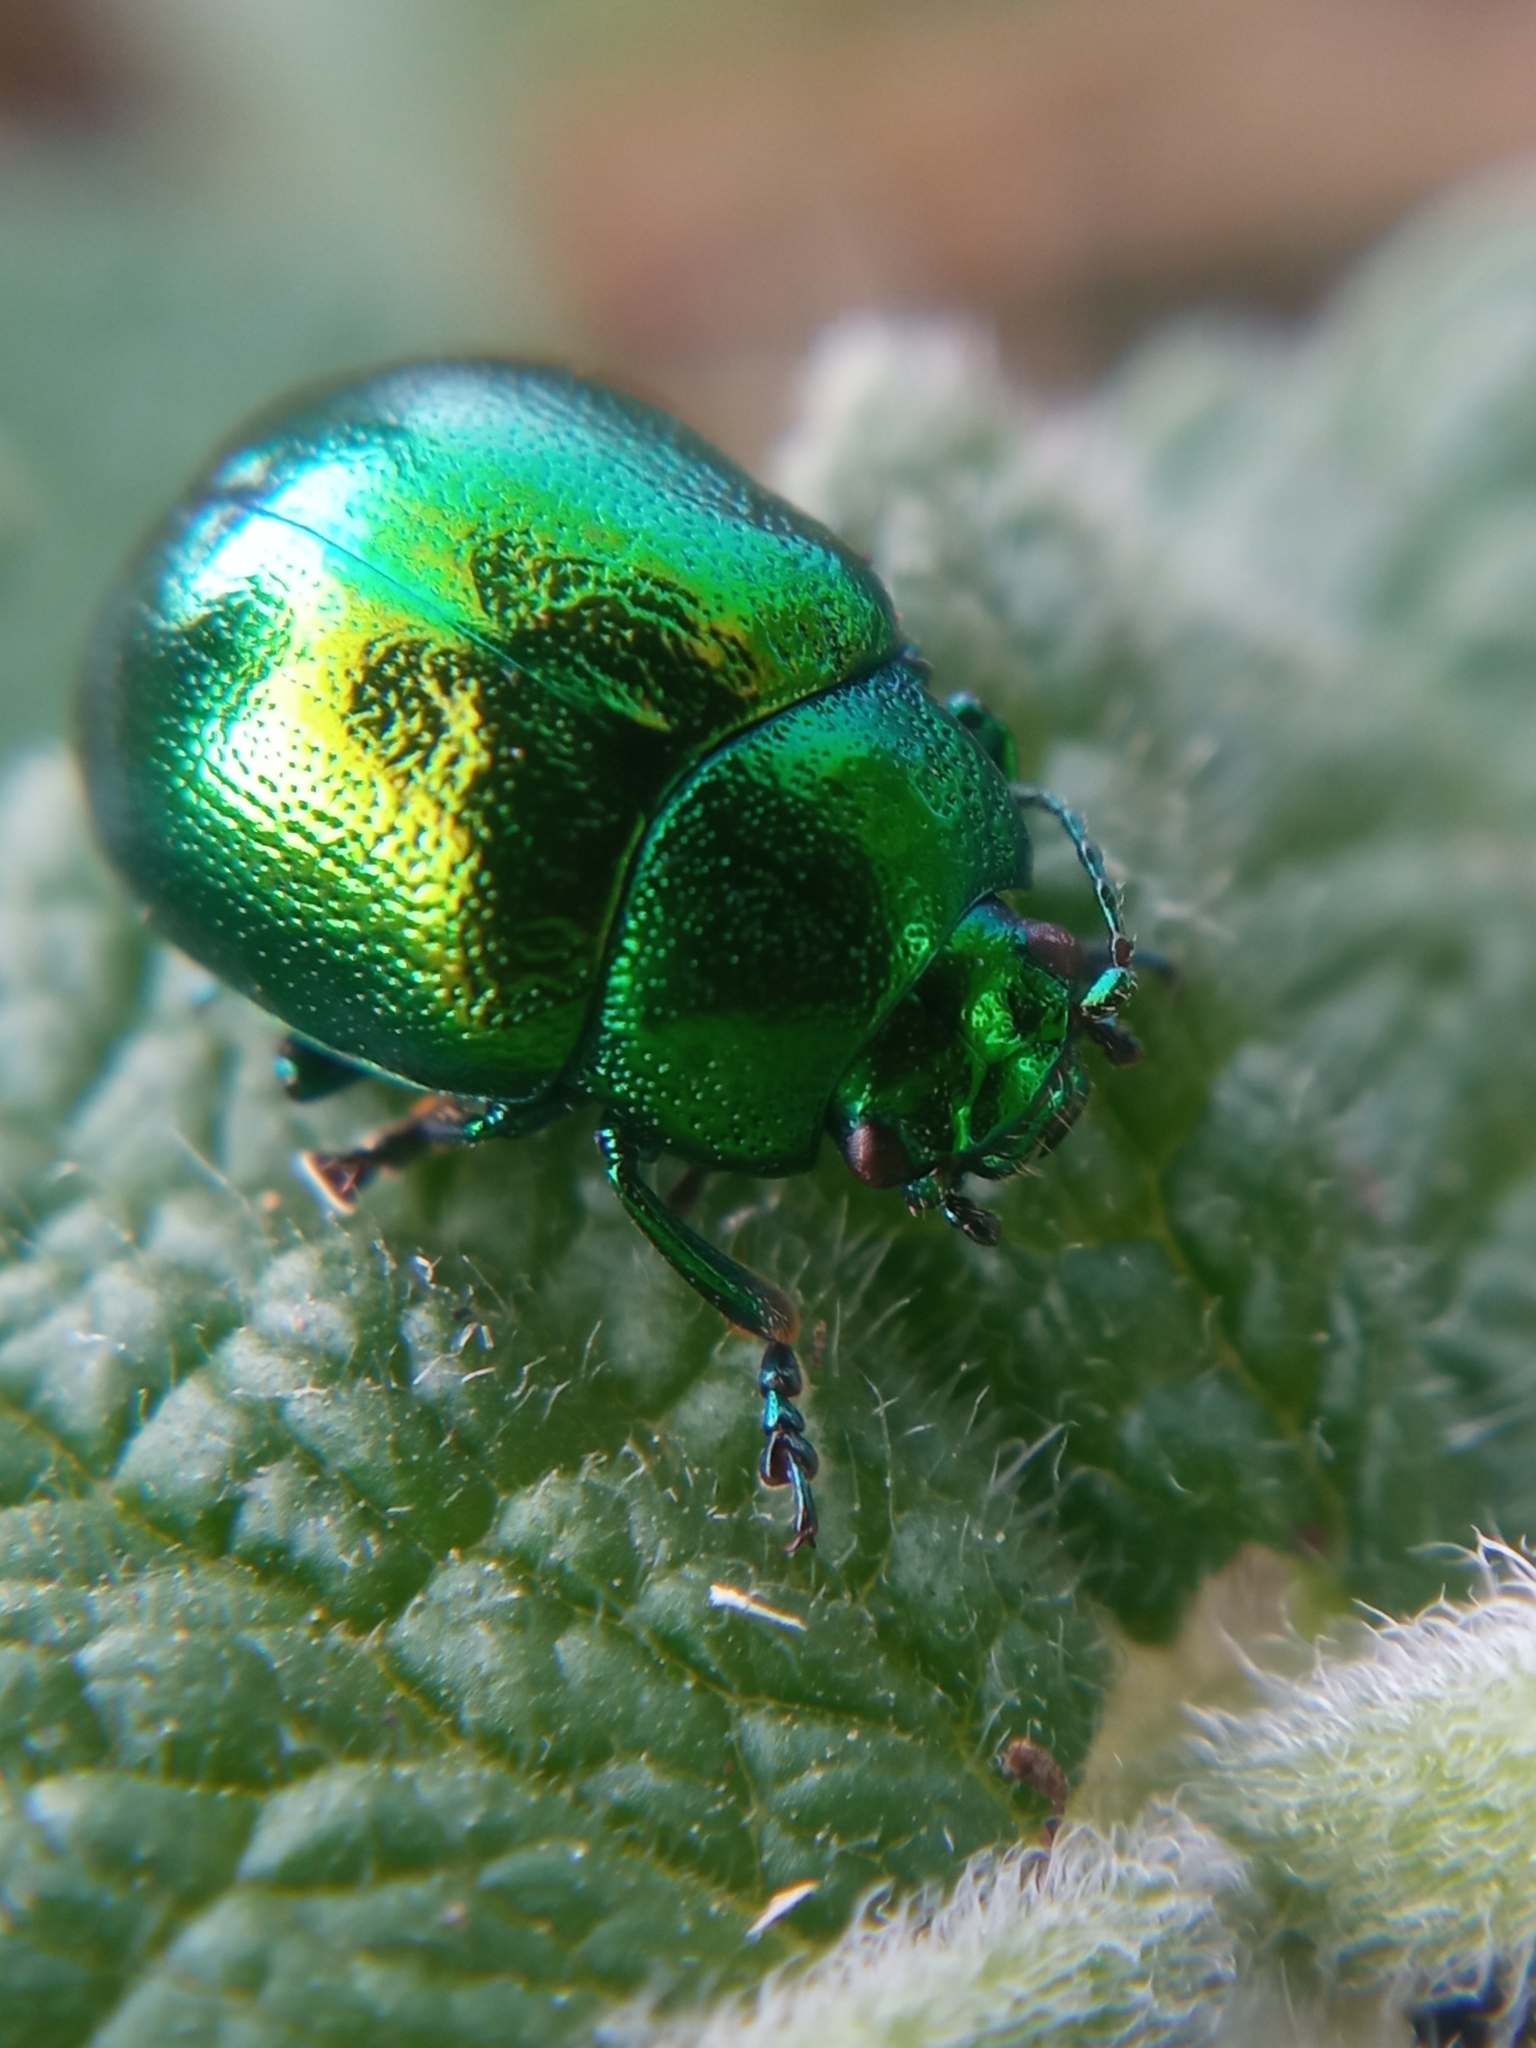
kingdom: Animalia
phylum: Arthropoda
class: Insecta
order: Coleoptera
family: Chrysomelidae
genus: Chrysolina
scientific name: Chrysolina herbacea
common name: Mint leaf beatle
